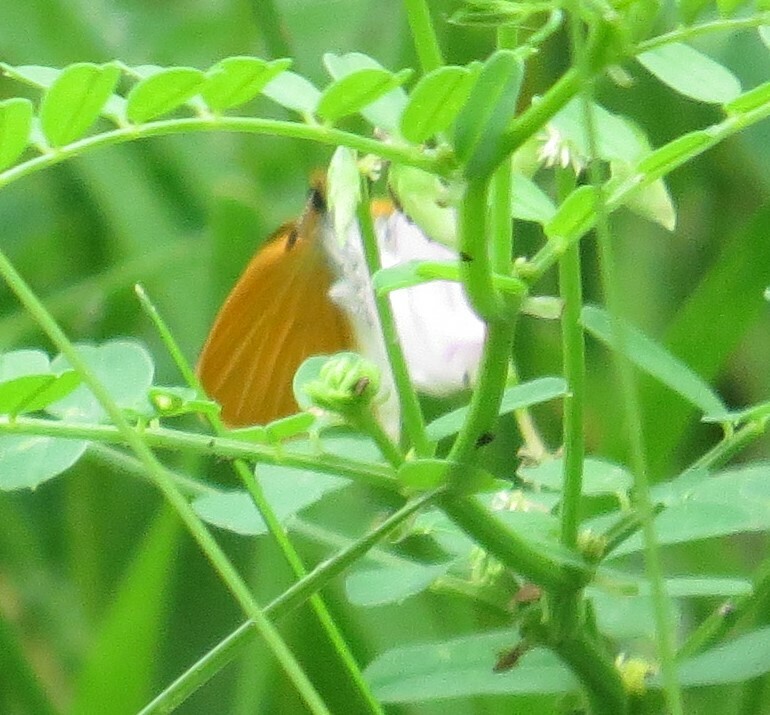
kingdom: Animalia
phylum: Arthropoda
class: Insecta
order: Lepidoptera
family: Hesperiidae
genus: Ancyloxypha
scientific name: Ancyloxypha numitor
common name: Least skipper
